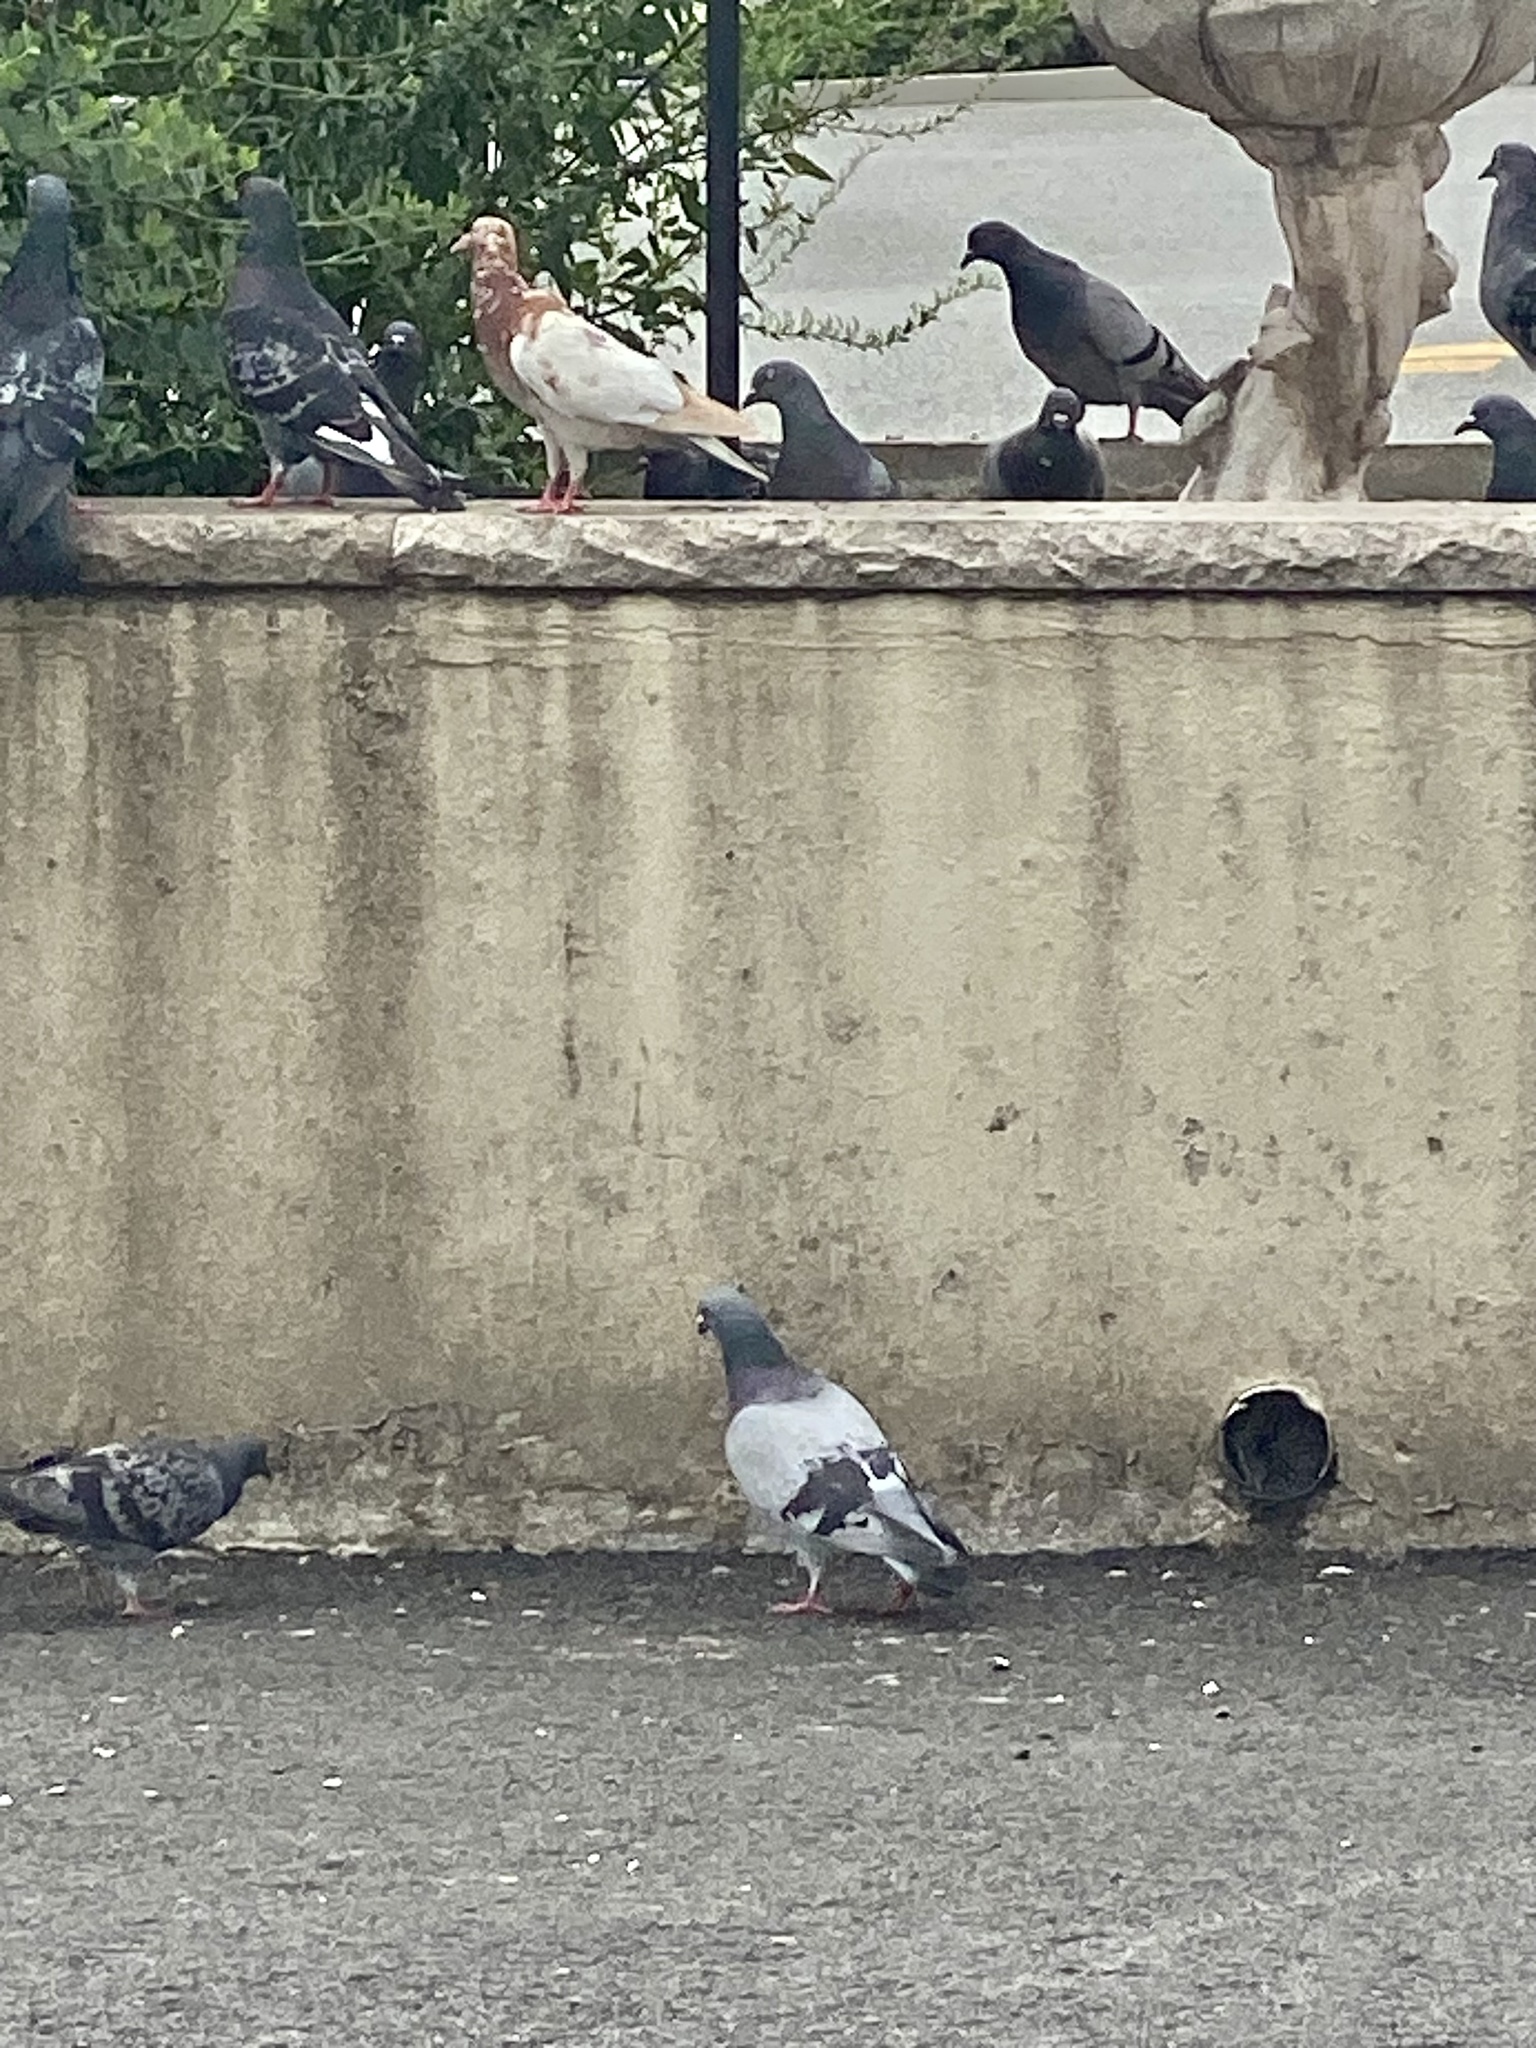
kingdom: Animalia
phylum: Chordata
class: Aves
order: Columbiformes
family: Columbidae
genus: Columba
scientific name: Columba livia
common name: Rock pigeon
